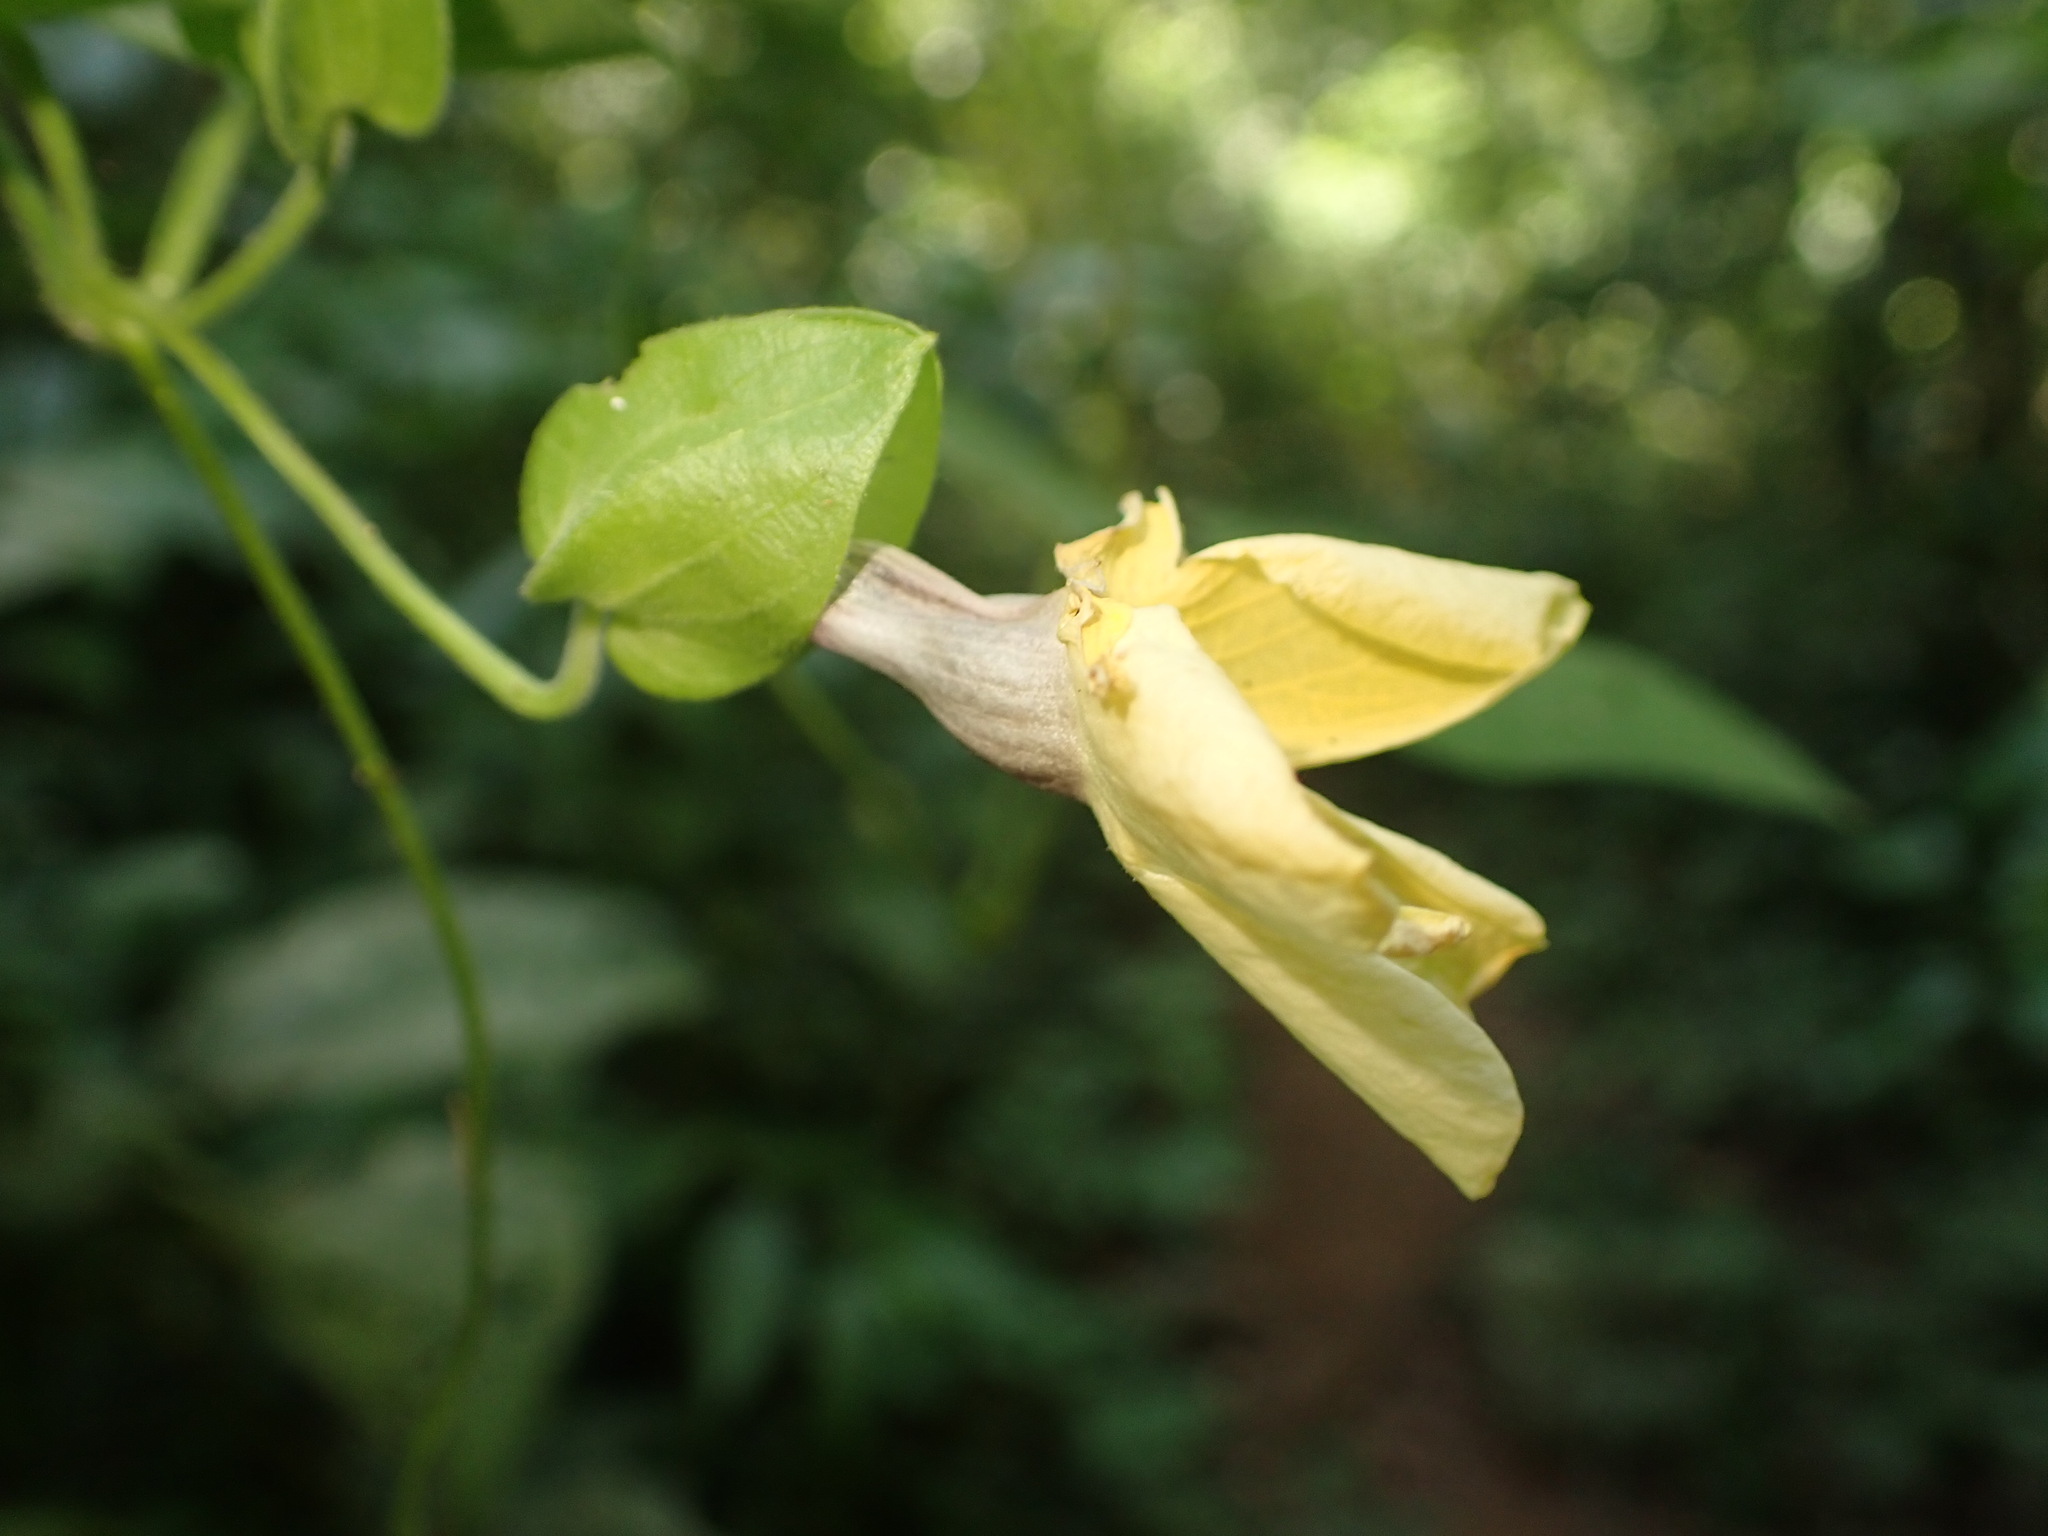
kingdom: Plantae
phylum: Tracheophyta
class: Magnoliopsida
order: Lamiales
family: Acanthaceae
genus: Thunbergia
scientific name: Thunbergia alata
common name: Blackeyed susan vine
